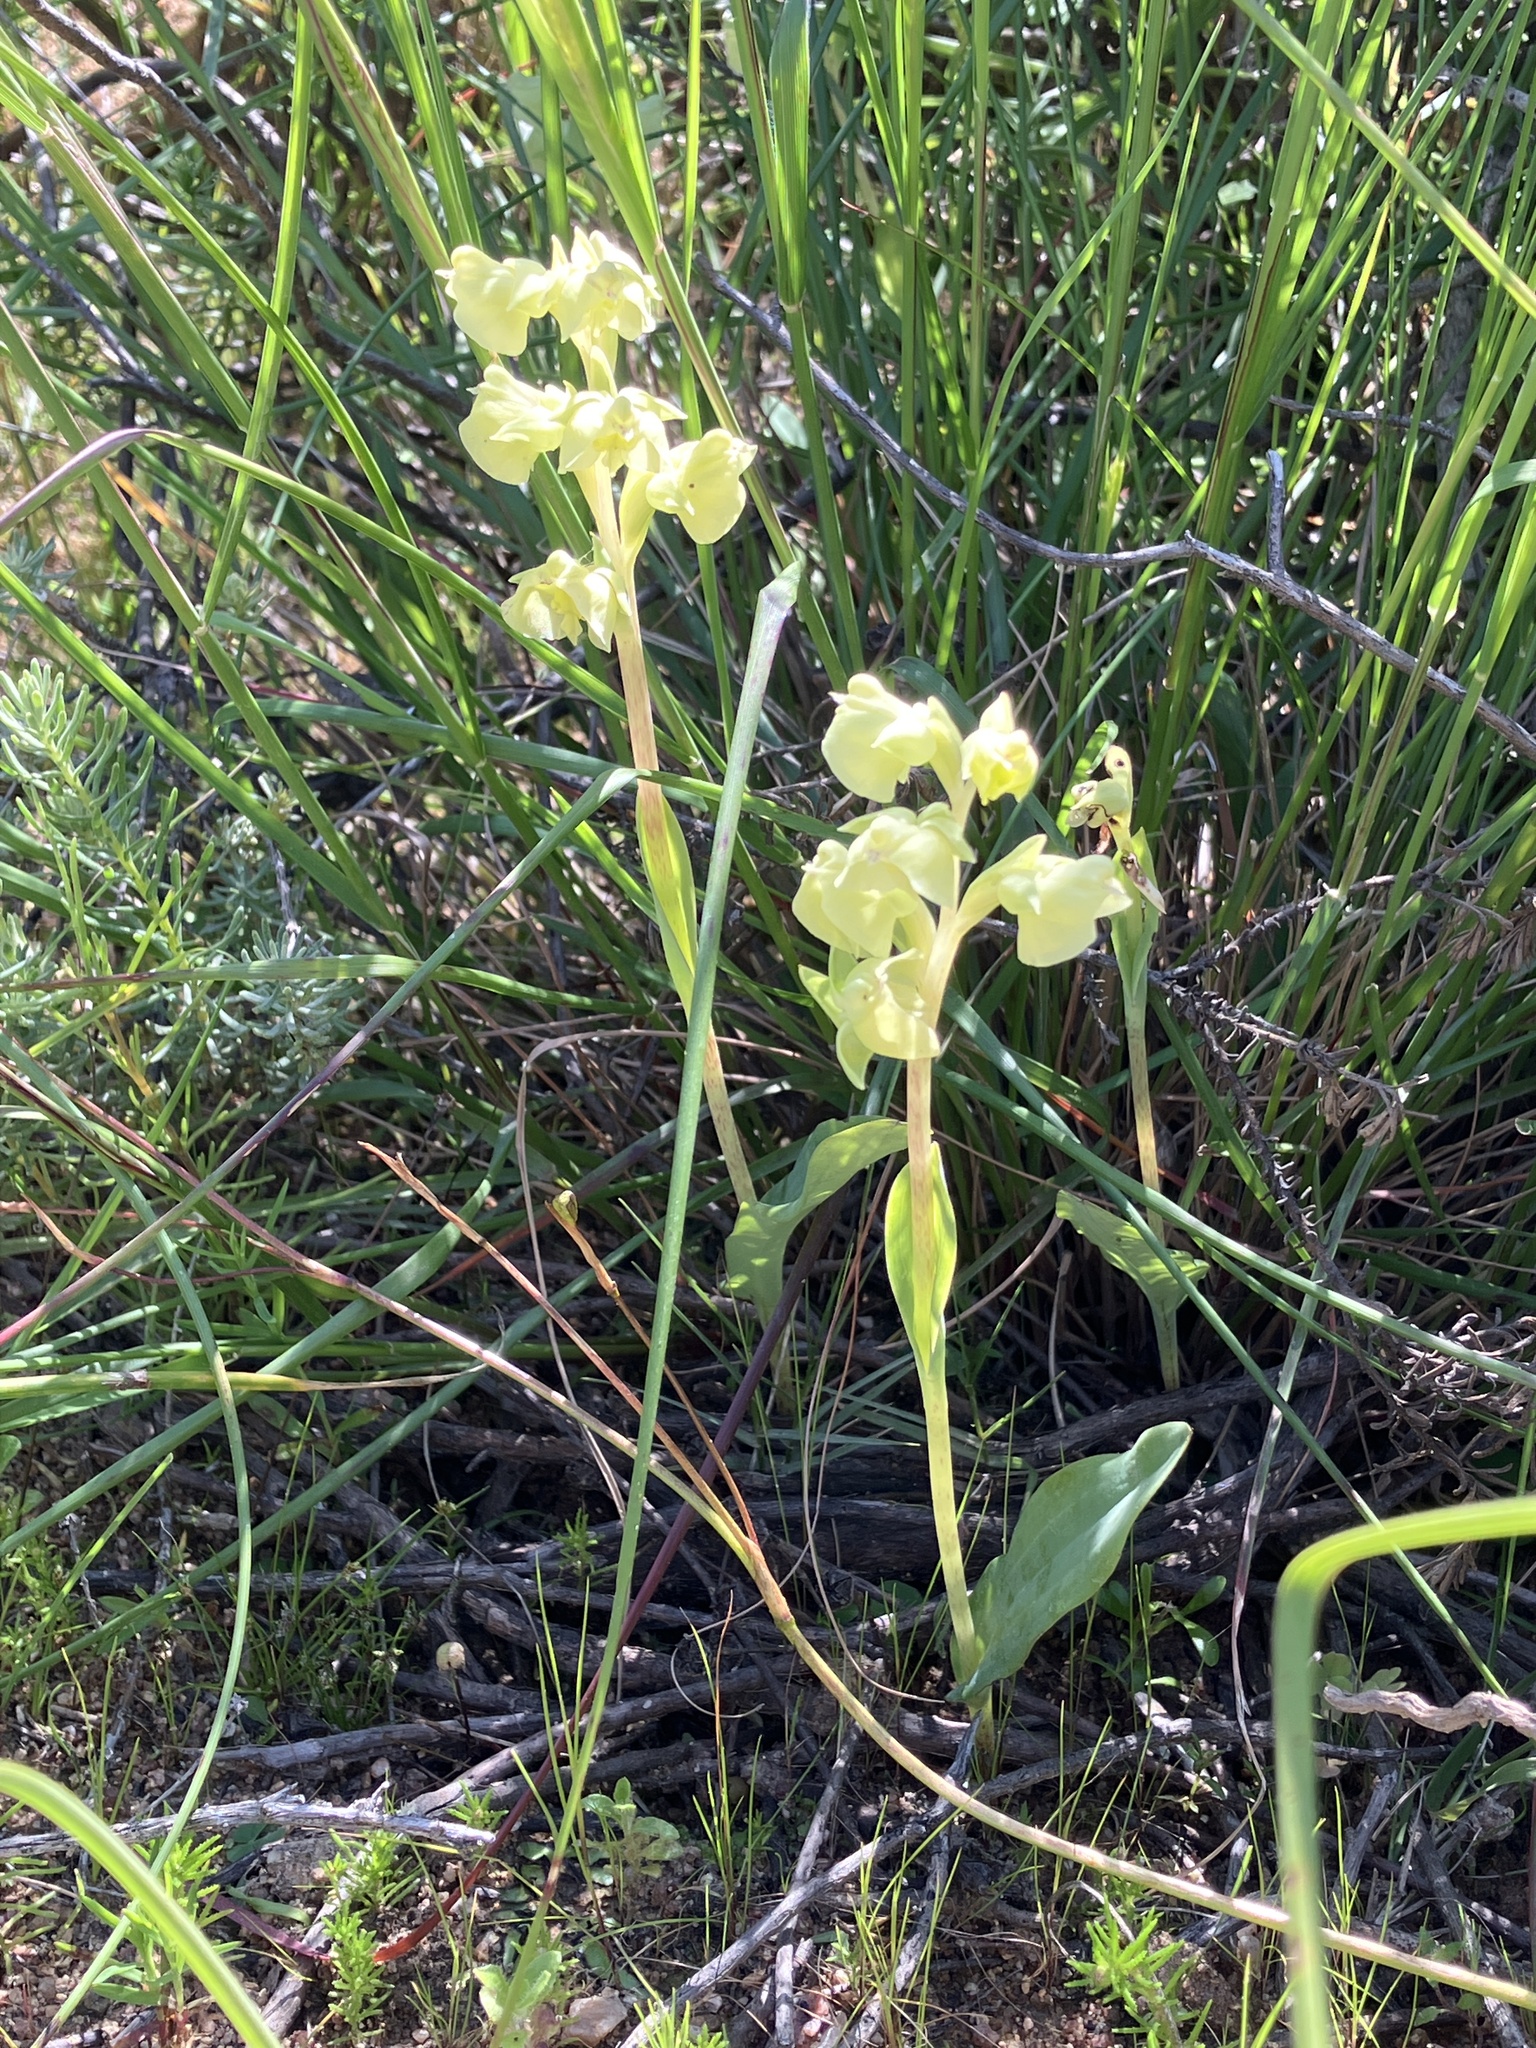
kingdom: Plantae
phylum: Tracheophyta
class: Liliopsida
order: Asparagales
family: Orchidaceae
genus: Pterygodium
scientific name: Pterygodium catholicum
